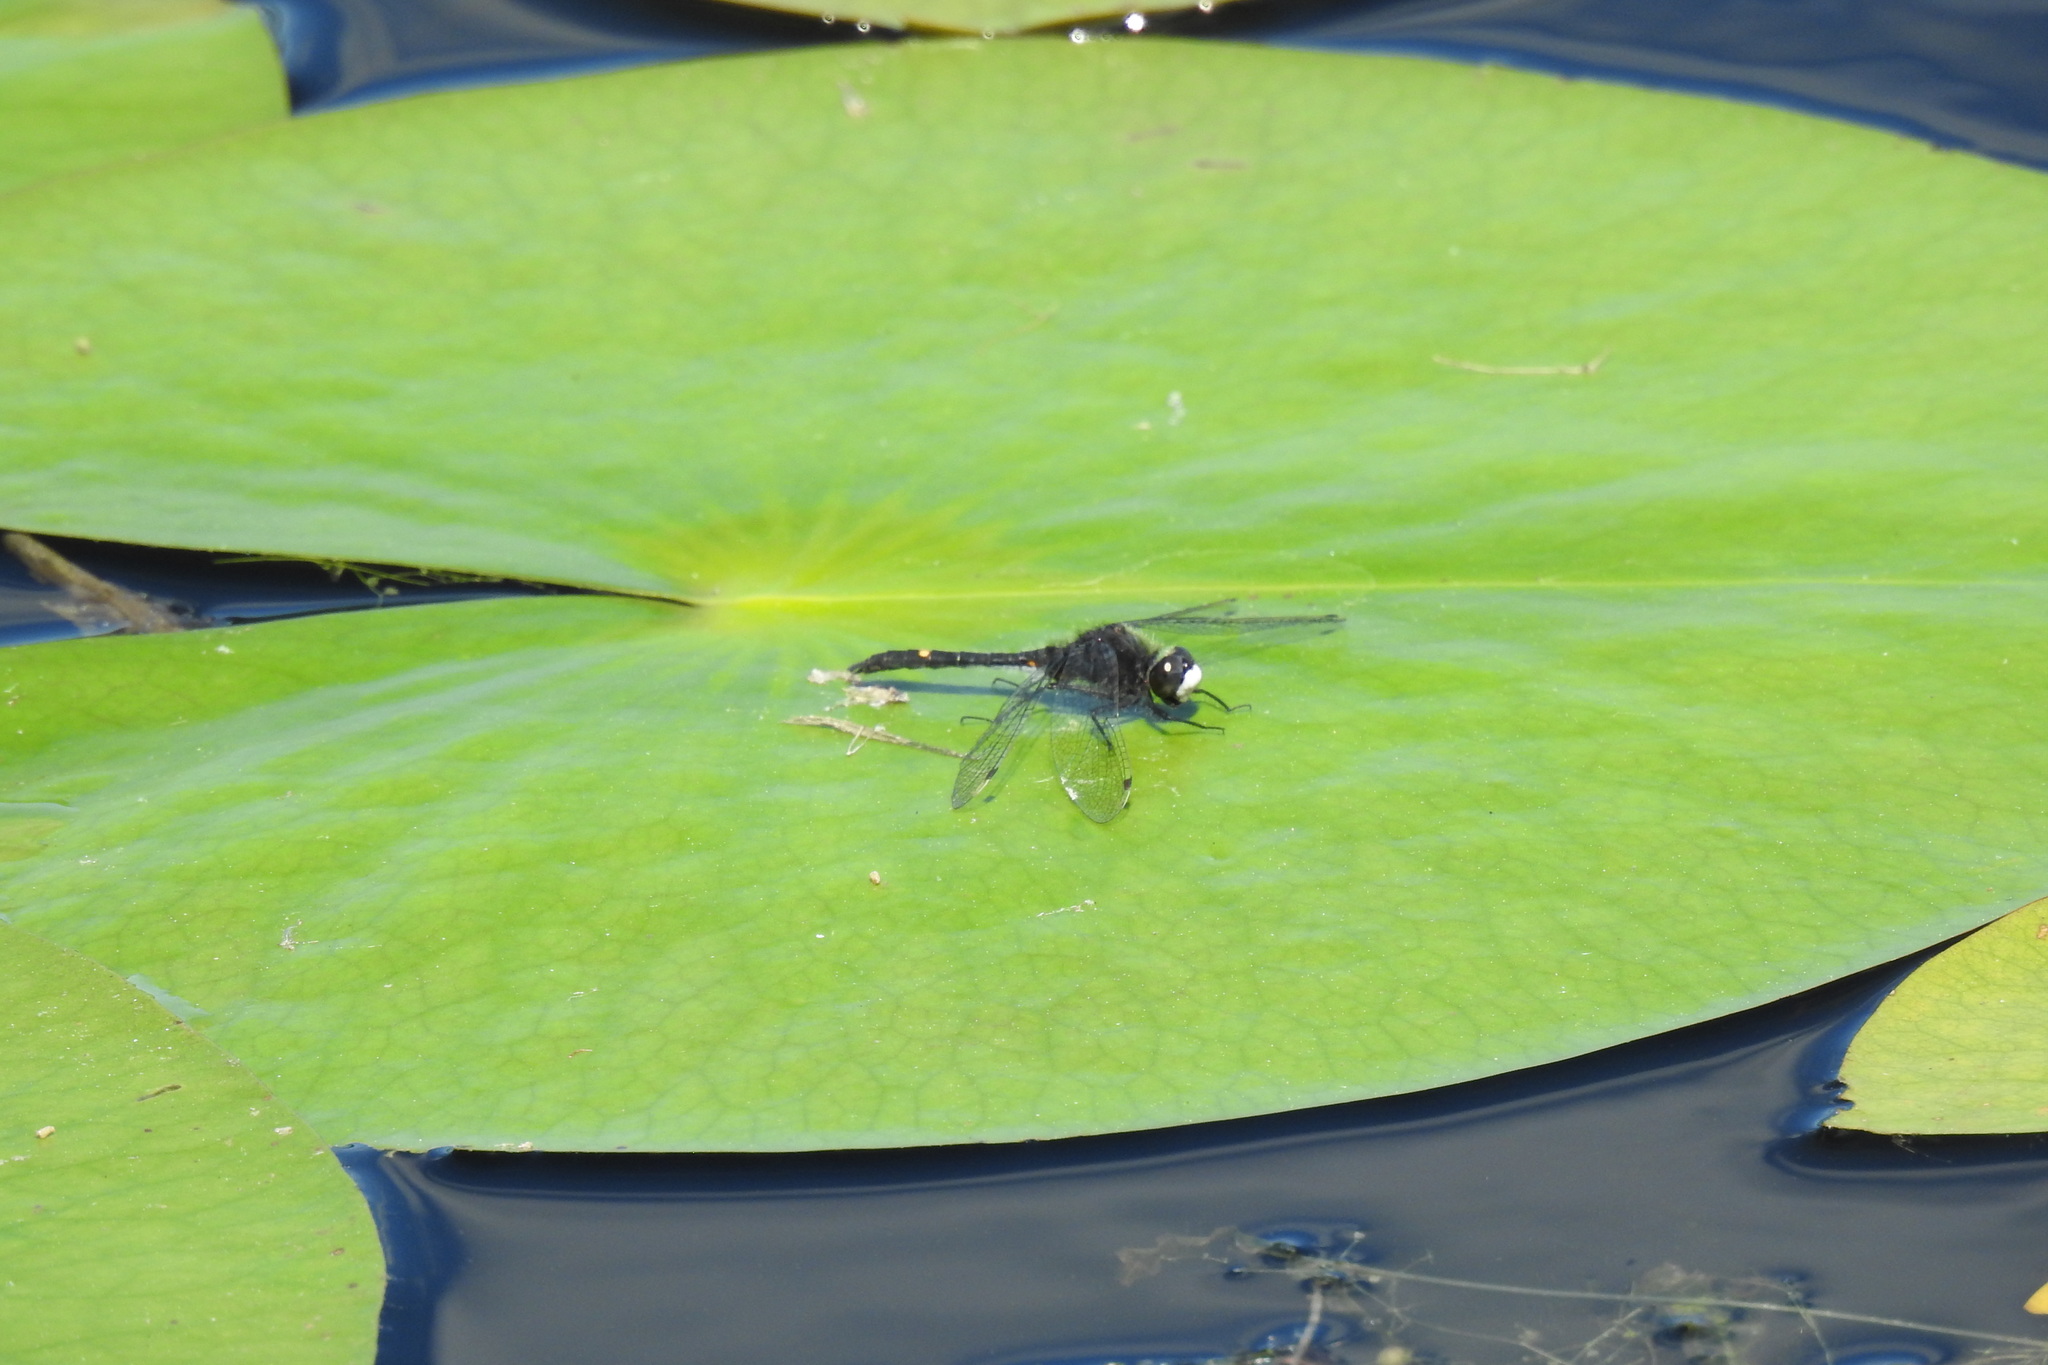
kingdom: Animalia
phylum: Arthropoda
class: Insecta
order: Odonata
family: Libellulidae
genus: Leucorrhinia
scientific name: Leucorrhinia intacta
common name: Dot-tailed whiteface
